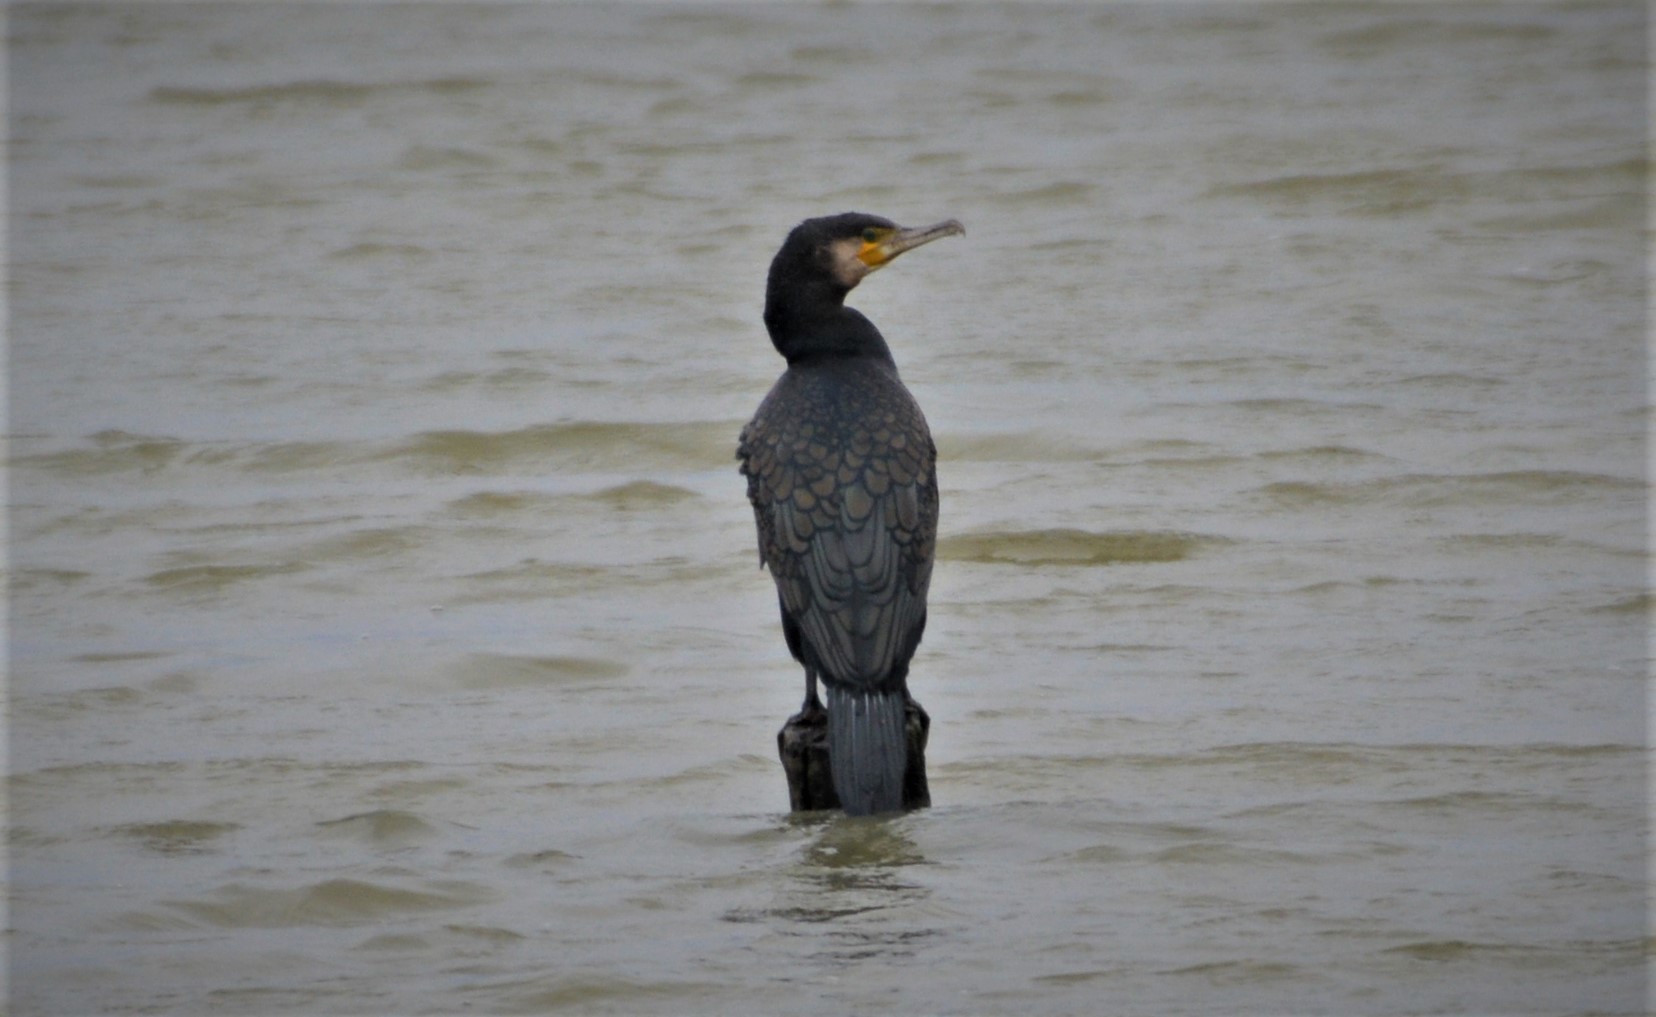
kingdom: Animalia
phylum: Chordata
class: Aves
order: Suliformes
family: Phalacrocoracidae
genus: Phalacrocorax
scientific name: Phalacrocorax carbo
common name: Great cormorant
